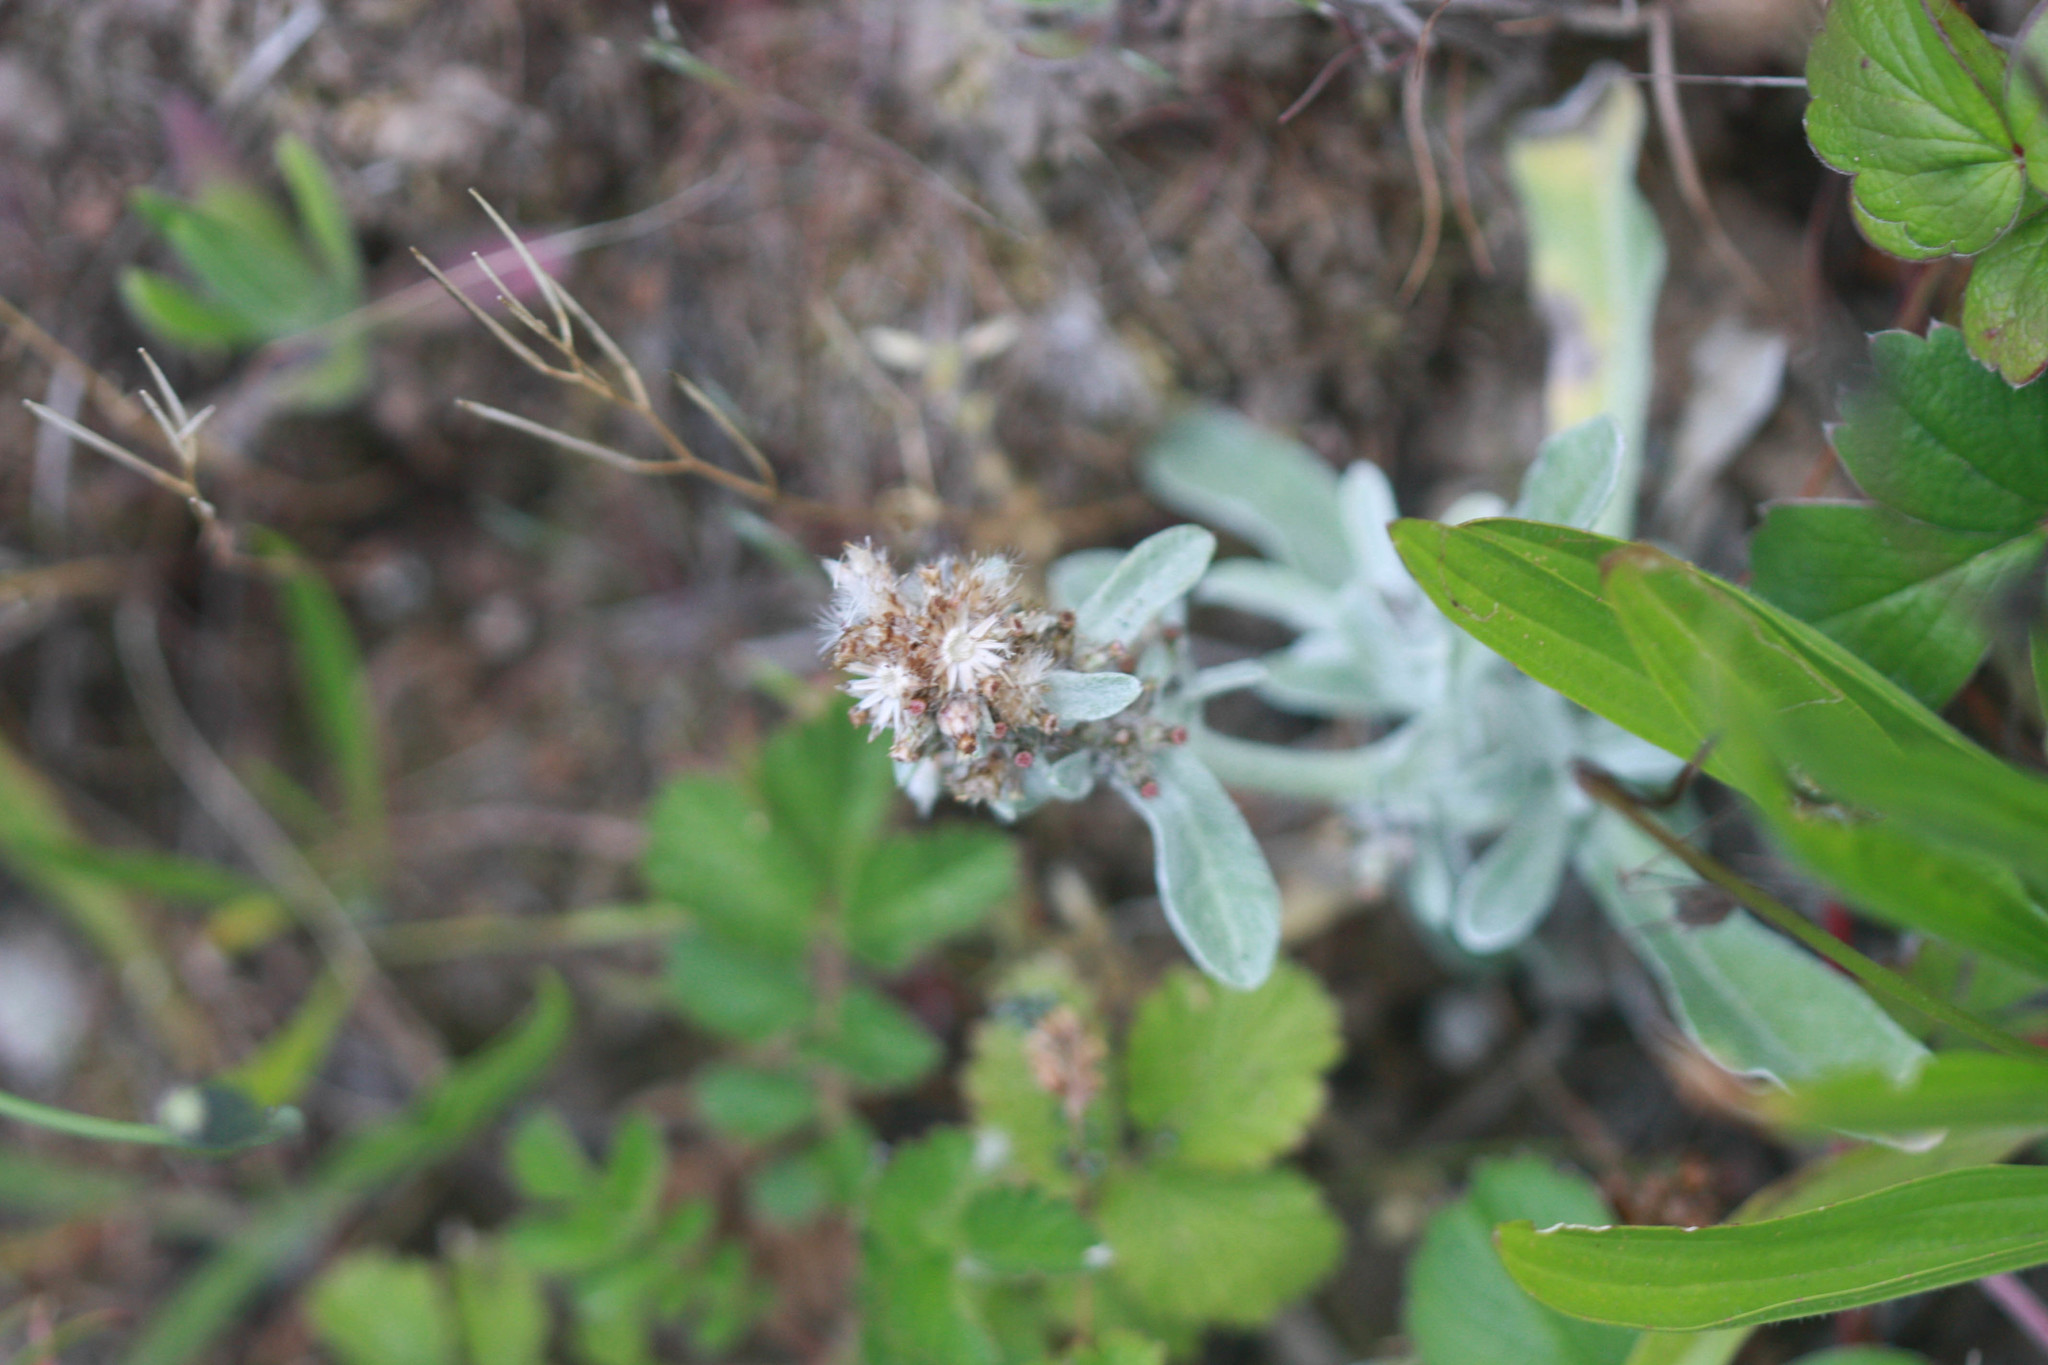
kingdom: Plantae
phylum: Tracheophyta
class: Magnoliopsida
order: Asterales
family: Asteraceae
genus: Gamochaeta
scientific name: Gamochaeta ustulata
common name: Pacific cudweed
